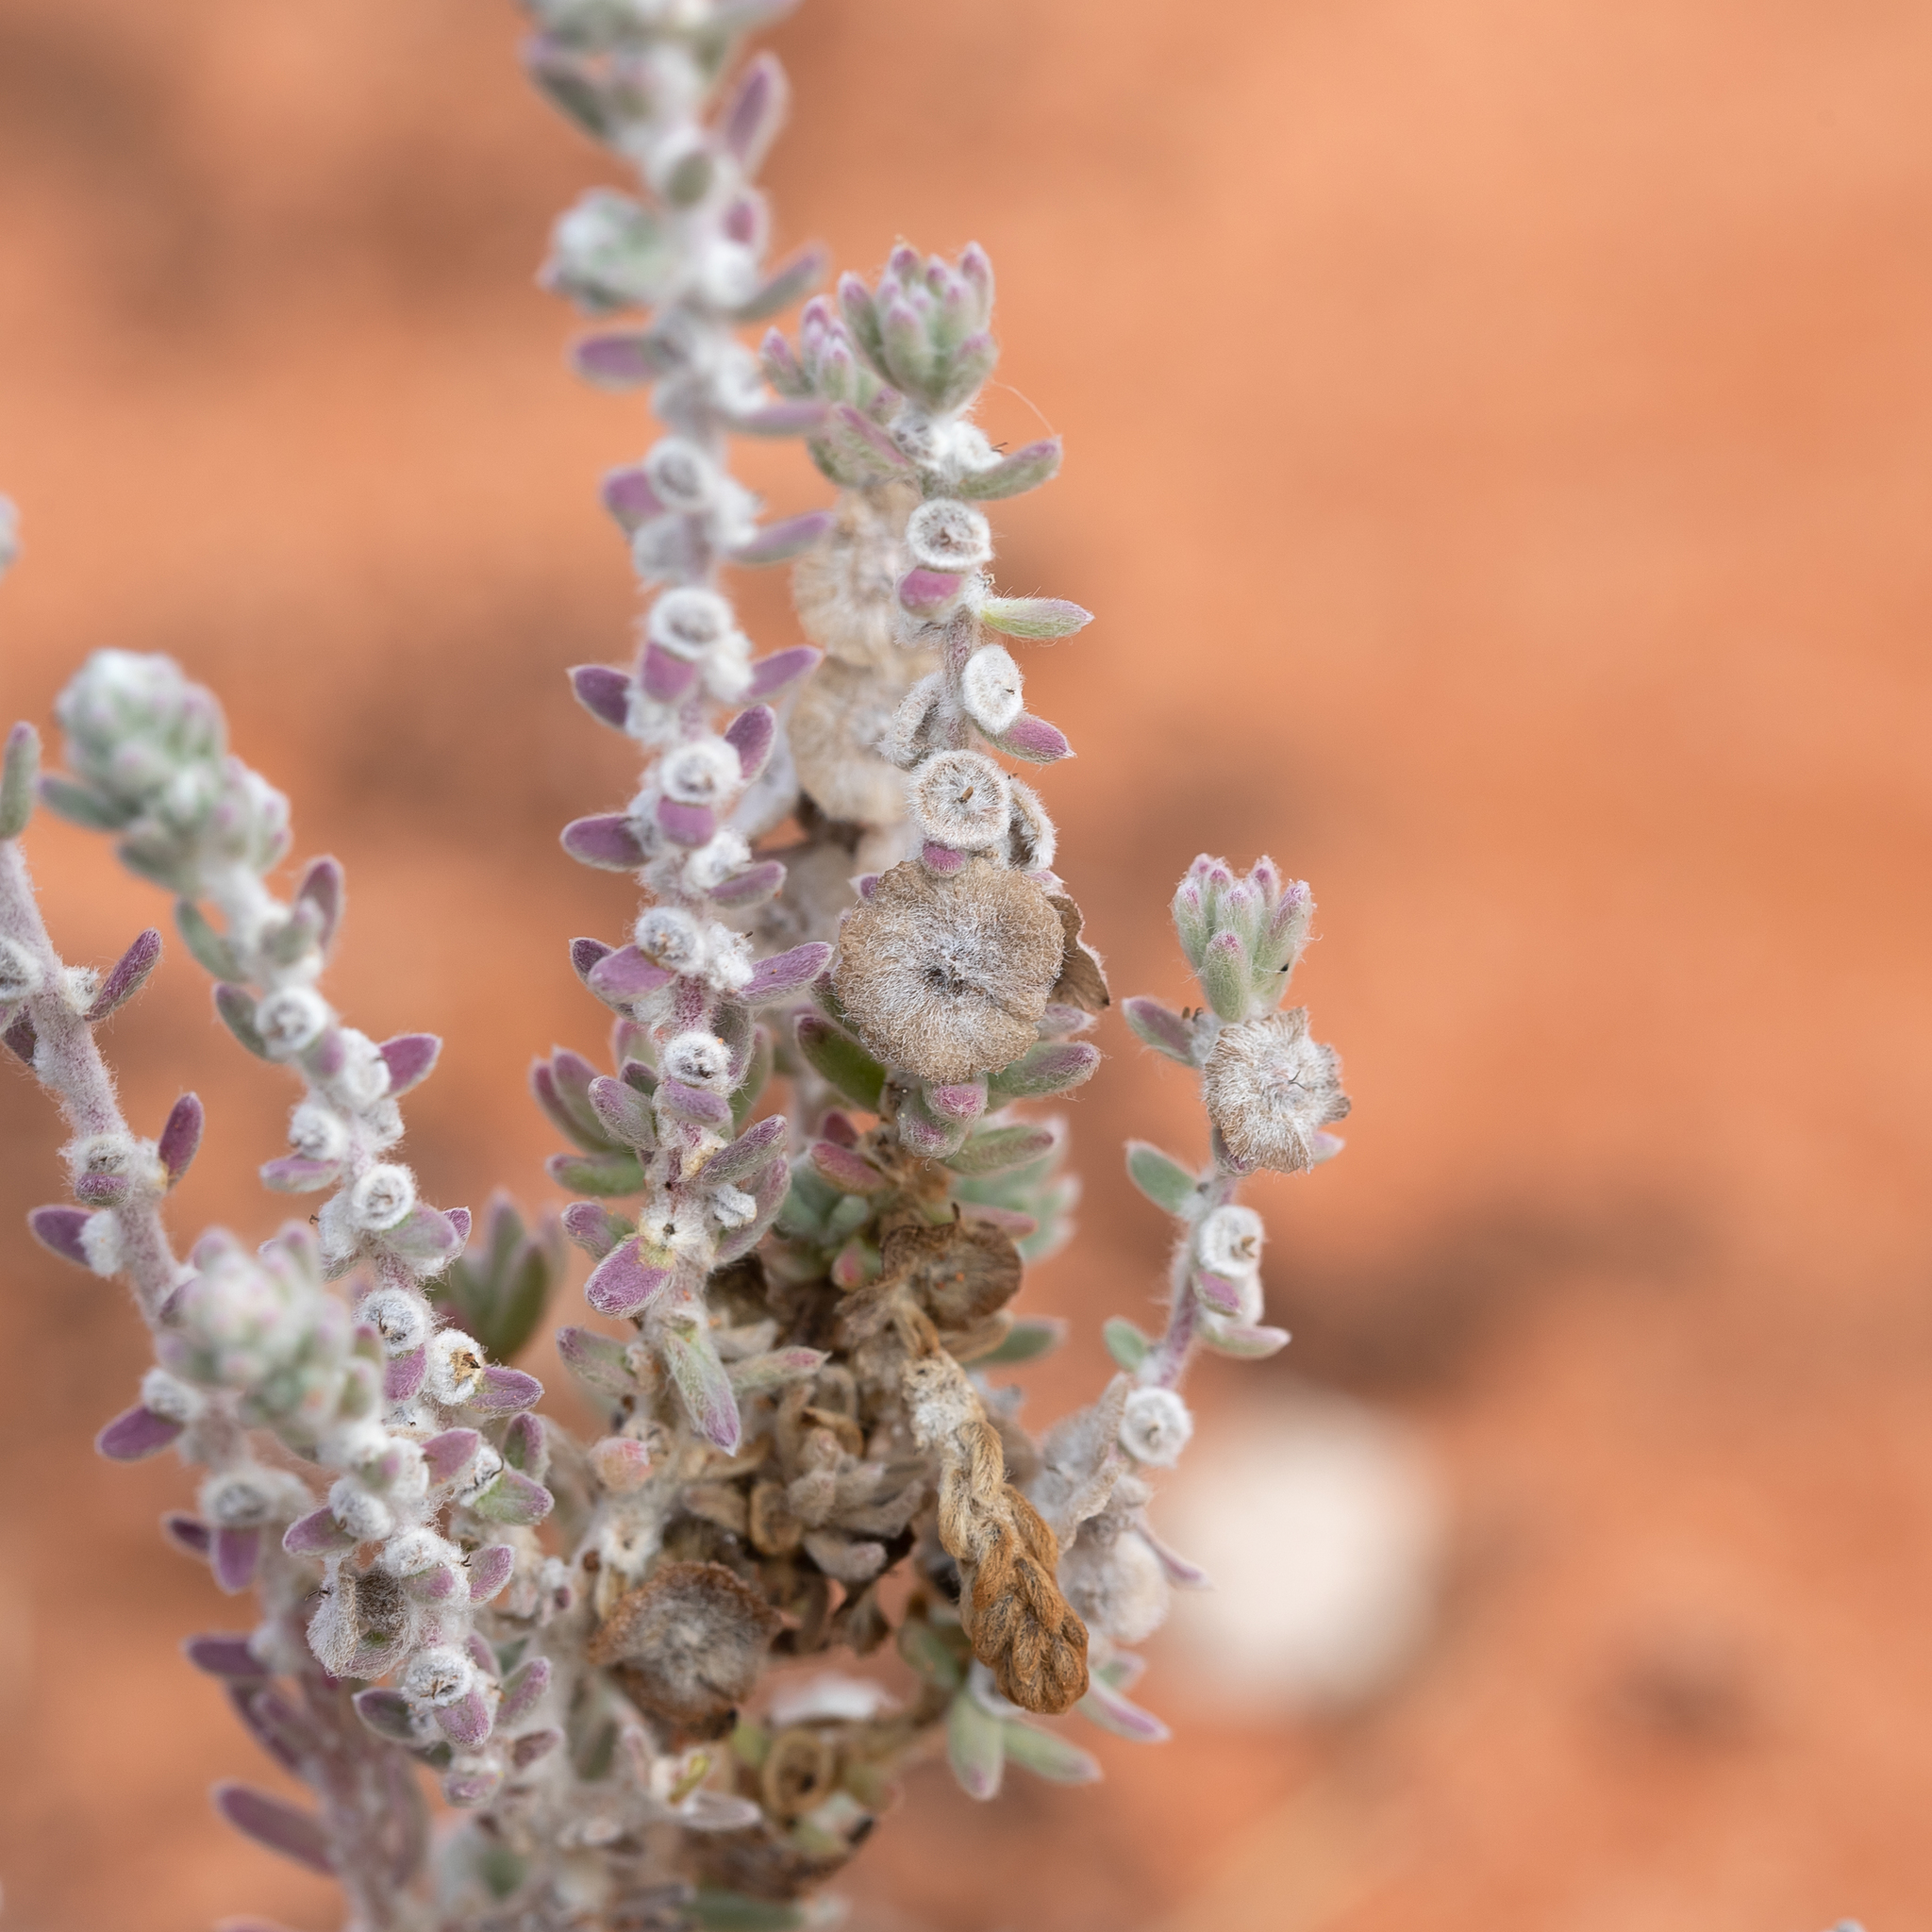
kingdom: Plantae
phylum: Tracheophyta
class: Magnoliopsida
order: Caryophyllales
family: Amaranthaceae
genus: Maireana
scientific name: Maireana trichoptera
